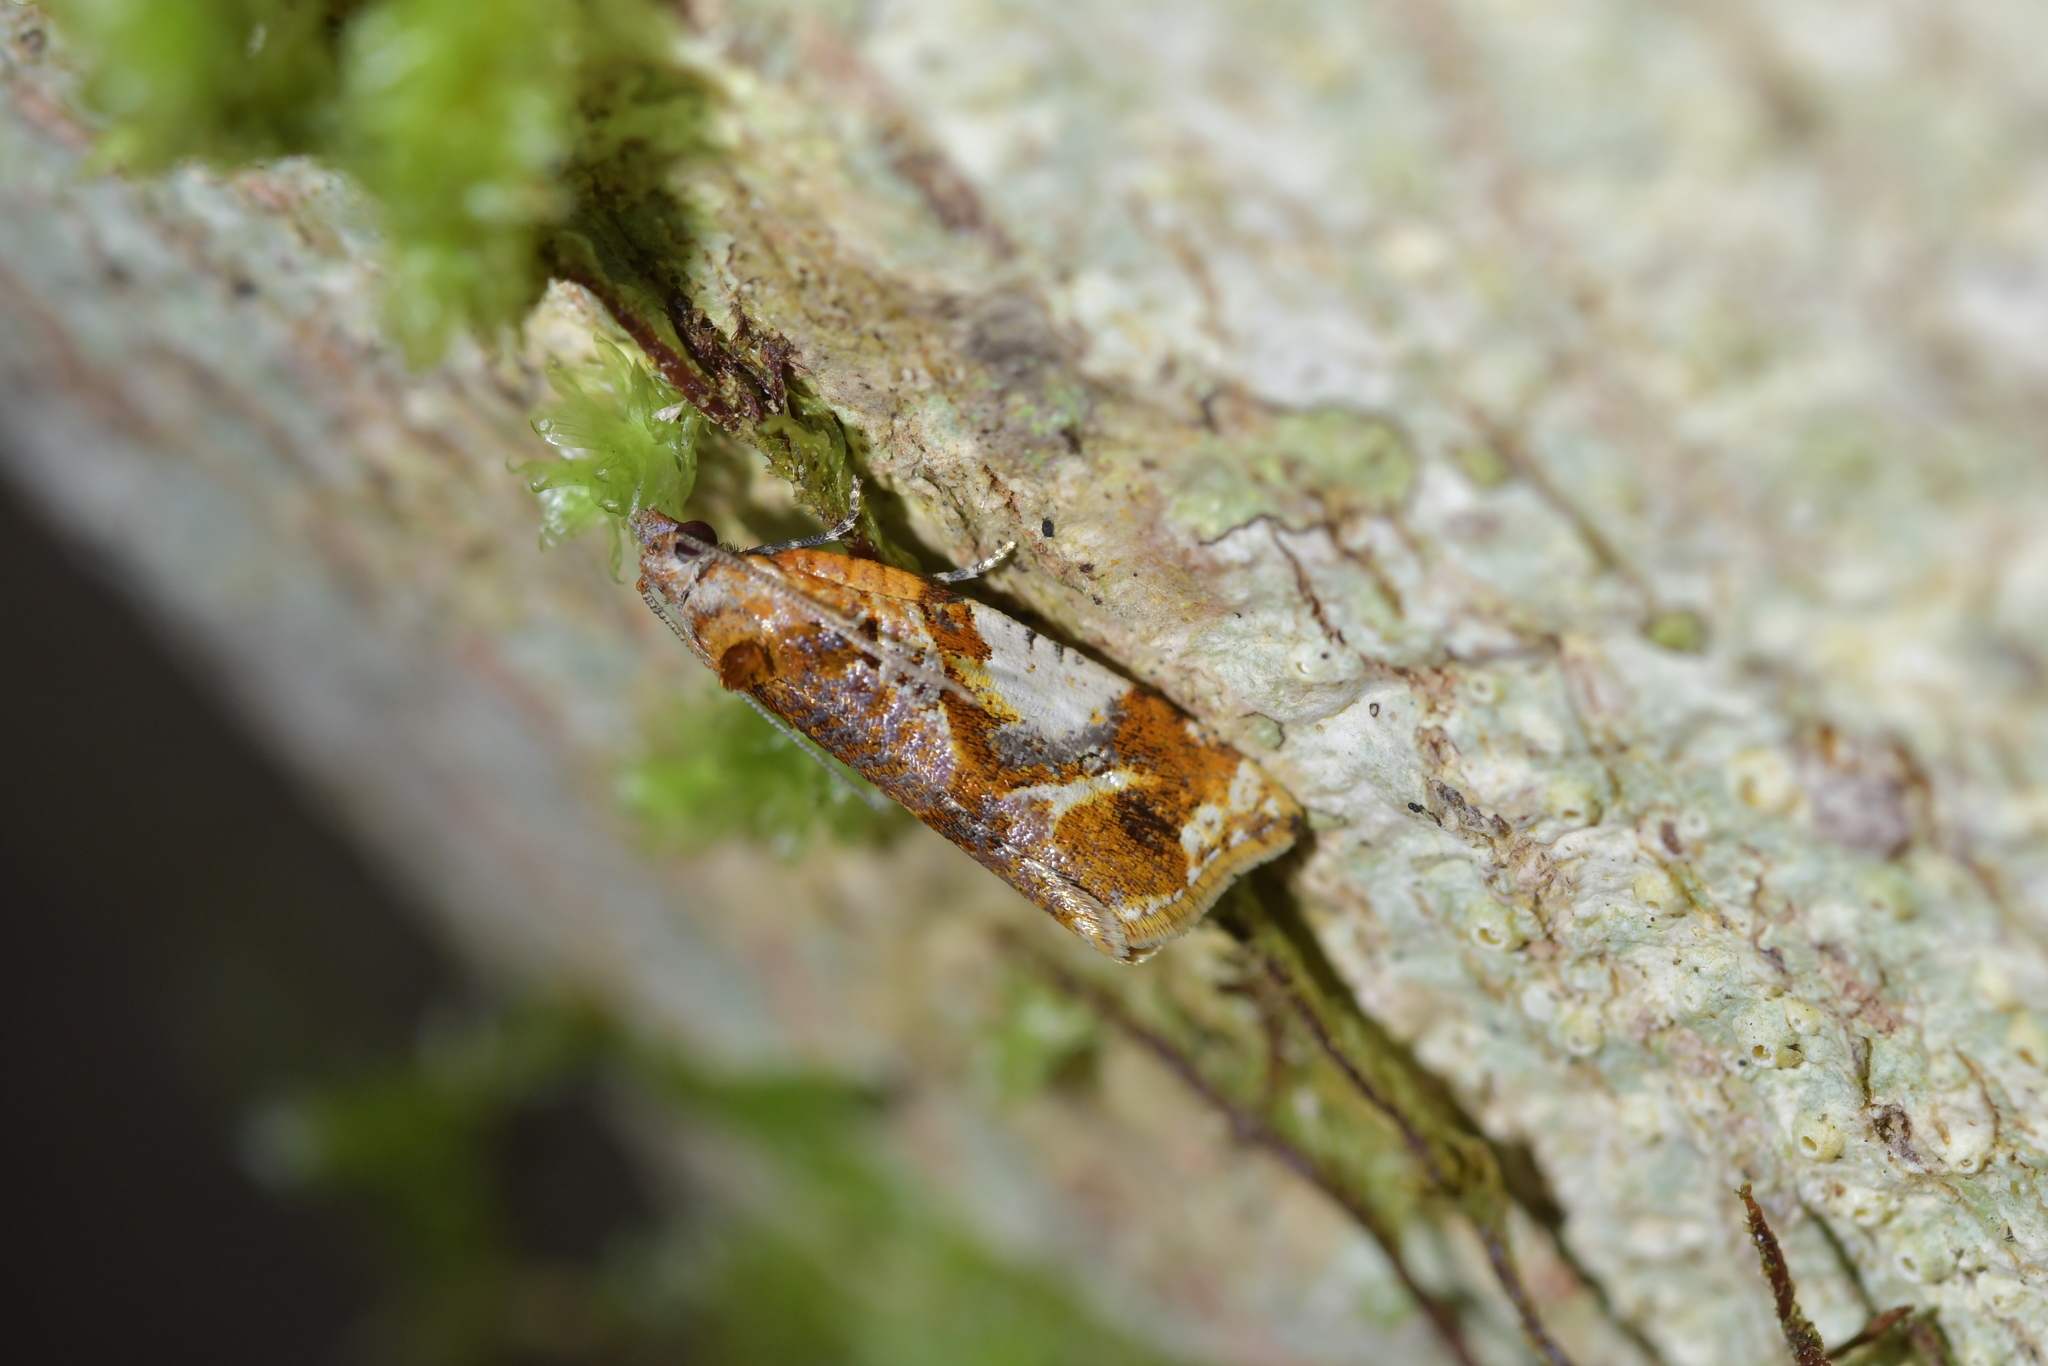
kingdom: Animalia
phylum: Arthropoda
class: Insecta
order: Lepidoptera
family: Tortricidae
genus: Pyrgotis
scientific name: Pyrgotis plagiatana
